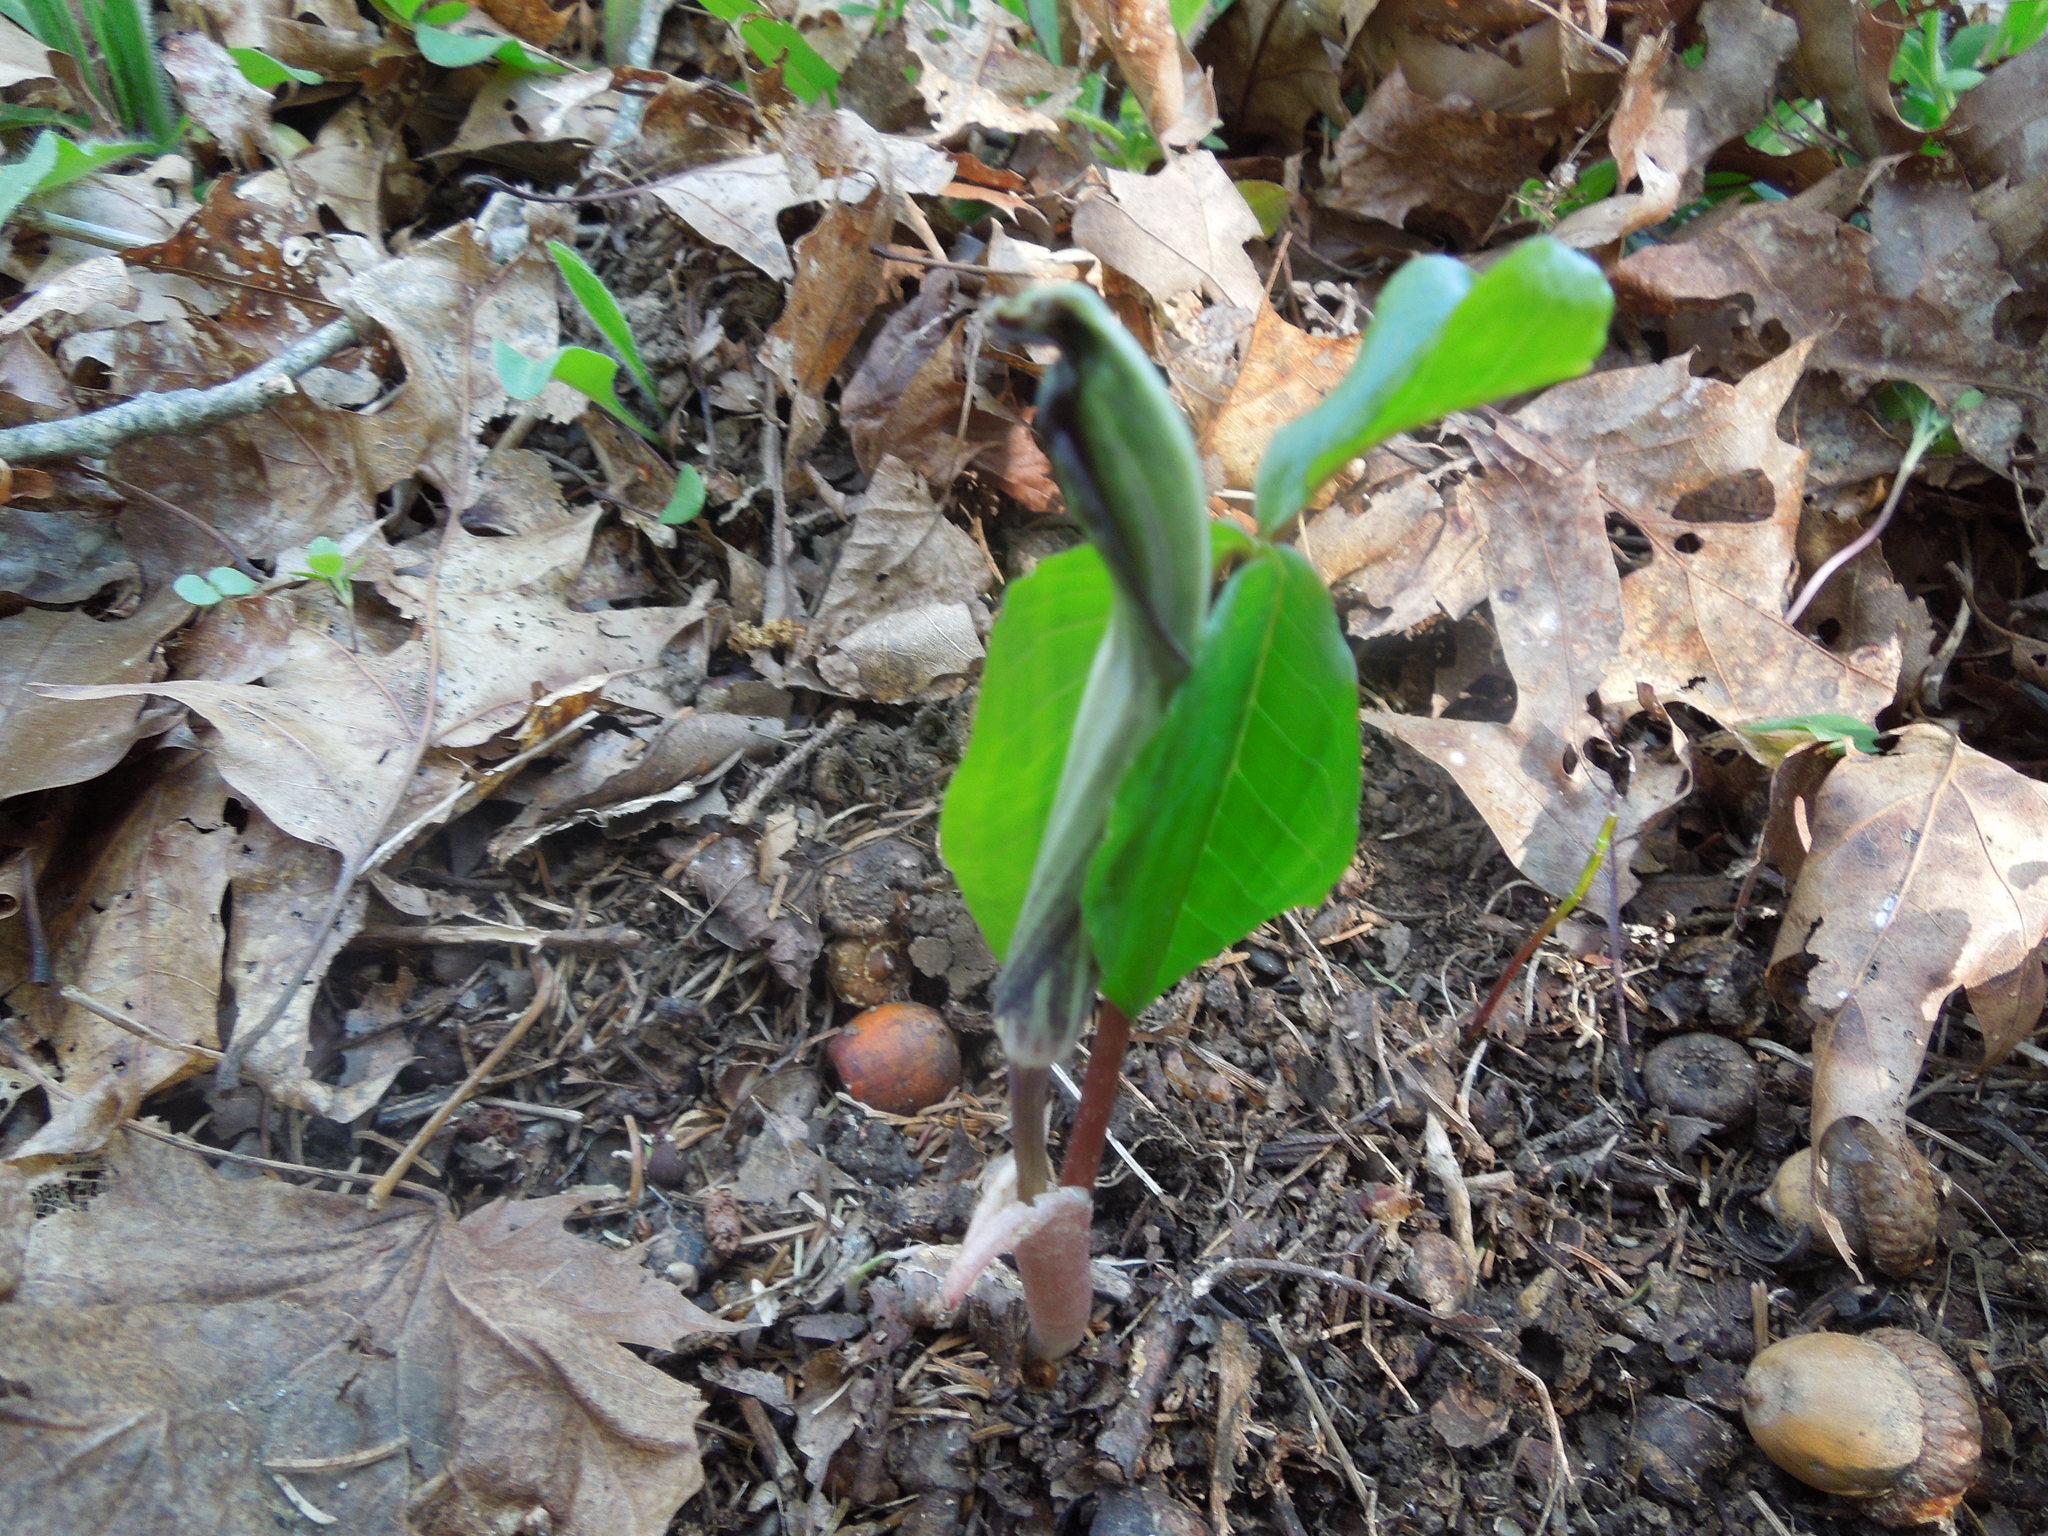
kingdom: Plantae
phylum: Tracheophyta
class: Liliopsida
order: Alismatales
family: Araceae
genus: Arisaema
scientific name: Arisaema triphyllum
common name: Jack-in-the-pulpit
